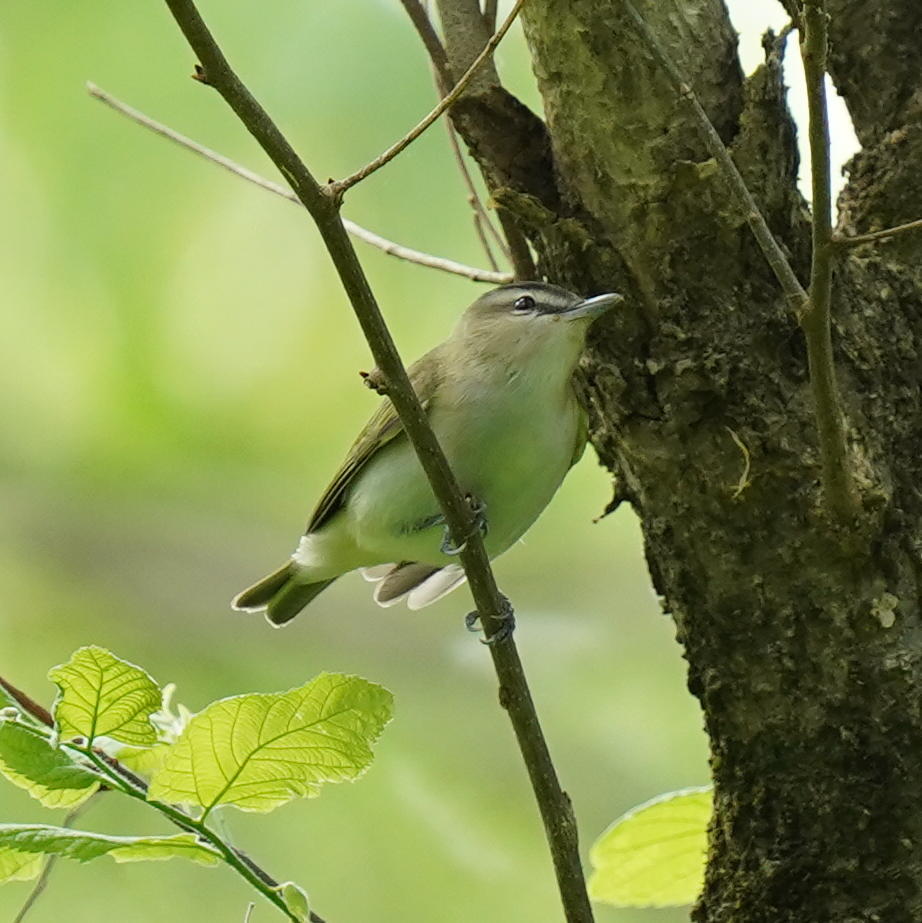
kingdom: Animalia
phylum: Chordata
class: Aves
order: Passeriformes
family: Vireonidae
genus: Vireo
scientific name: Vireo olivaceus
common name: Red-eyed vireo
